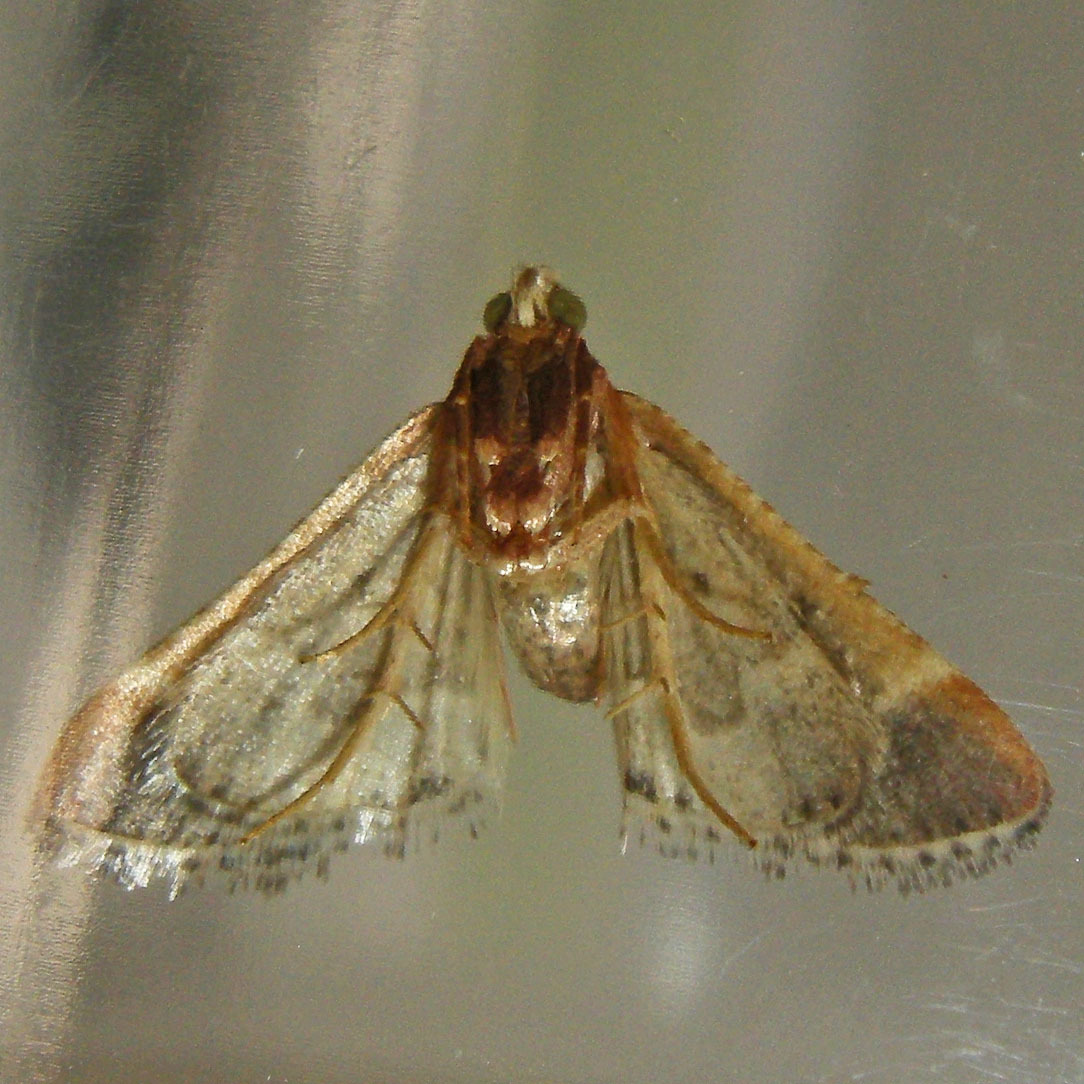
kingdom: Animalia
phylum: Arthropoda
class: Insecta
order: Lepidoptera
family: Pyralidae
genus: Pyralis
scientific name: Pyralis farinalis
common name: Meal moth
